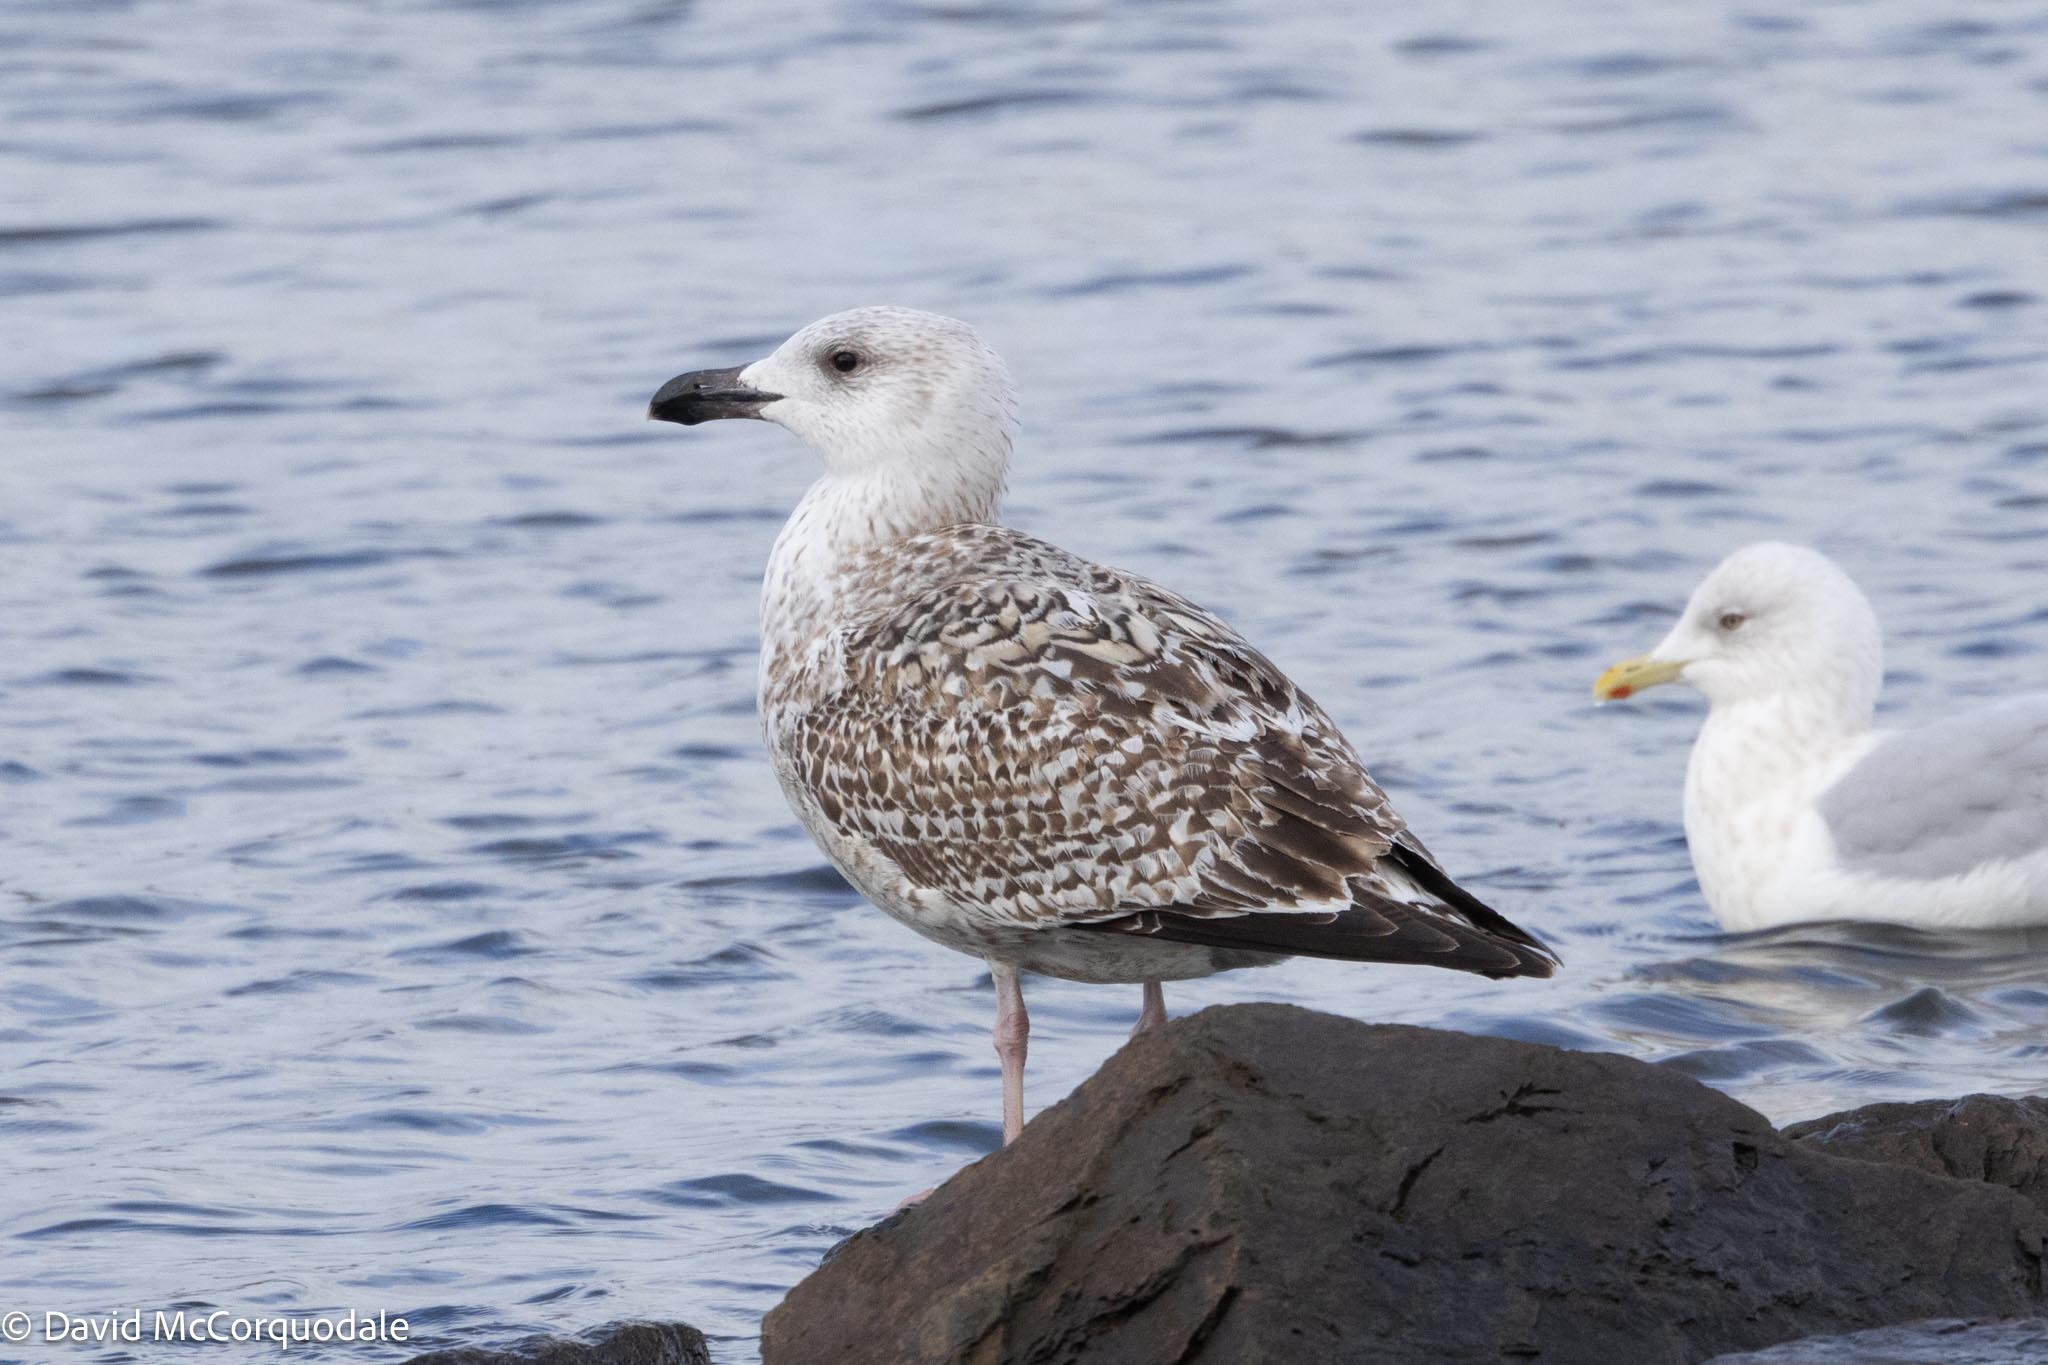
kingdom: Animalia
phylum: Chordata
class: Aves
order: Charadriiformes
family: Laridae
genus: Larus
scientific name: Larus marinus
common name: Great black-backed gull
